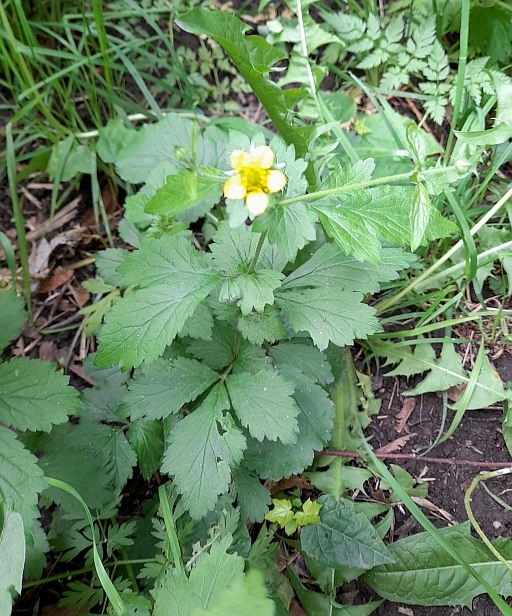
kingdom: Plantae
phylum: Tracheophyta
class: Magnoliopsida
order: Rosales
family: Rosaceae
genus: Geum
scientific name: Geum urbanum
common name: Wood avens
